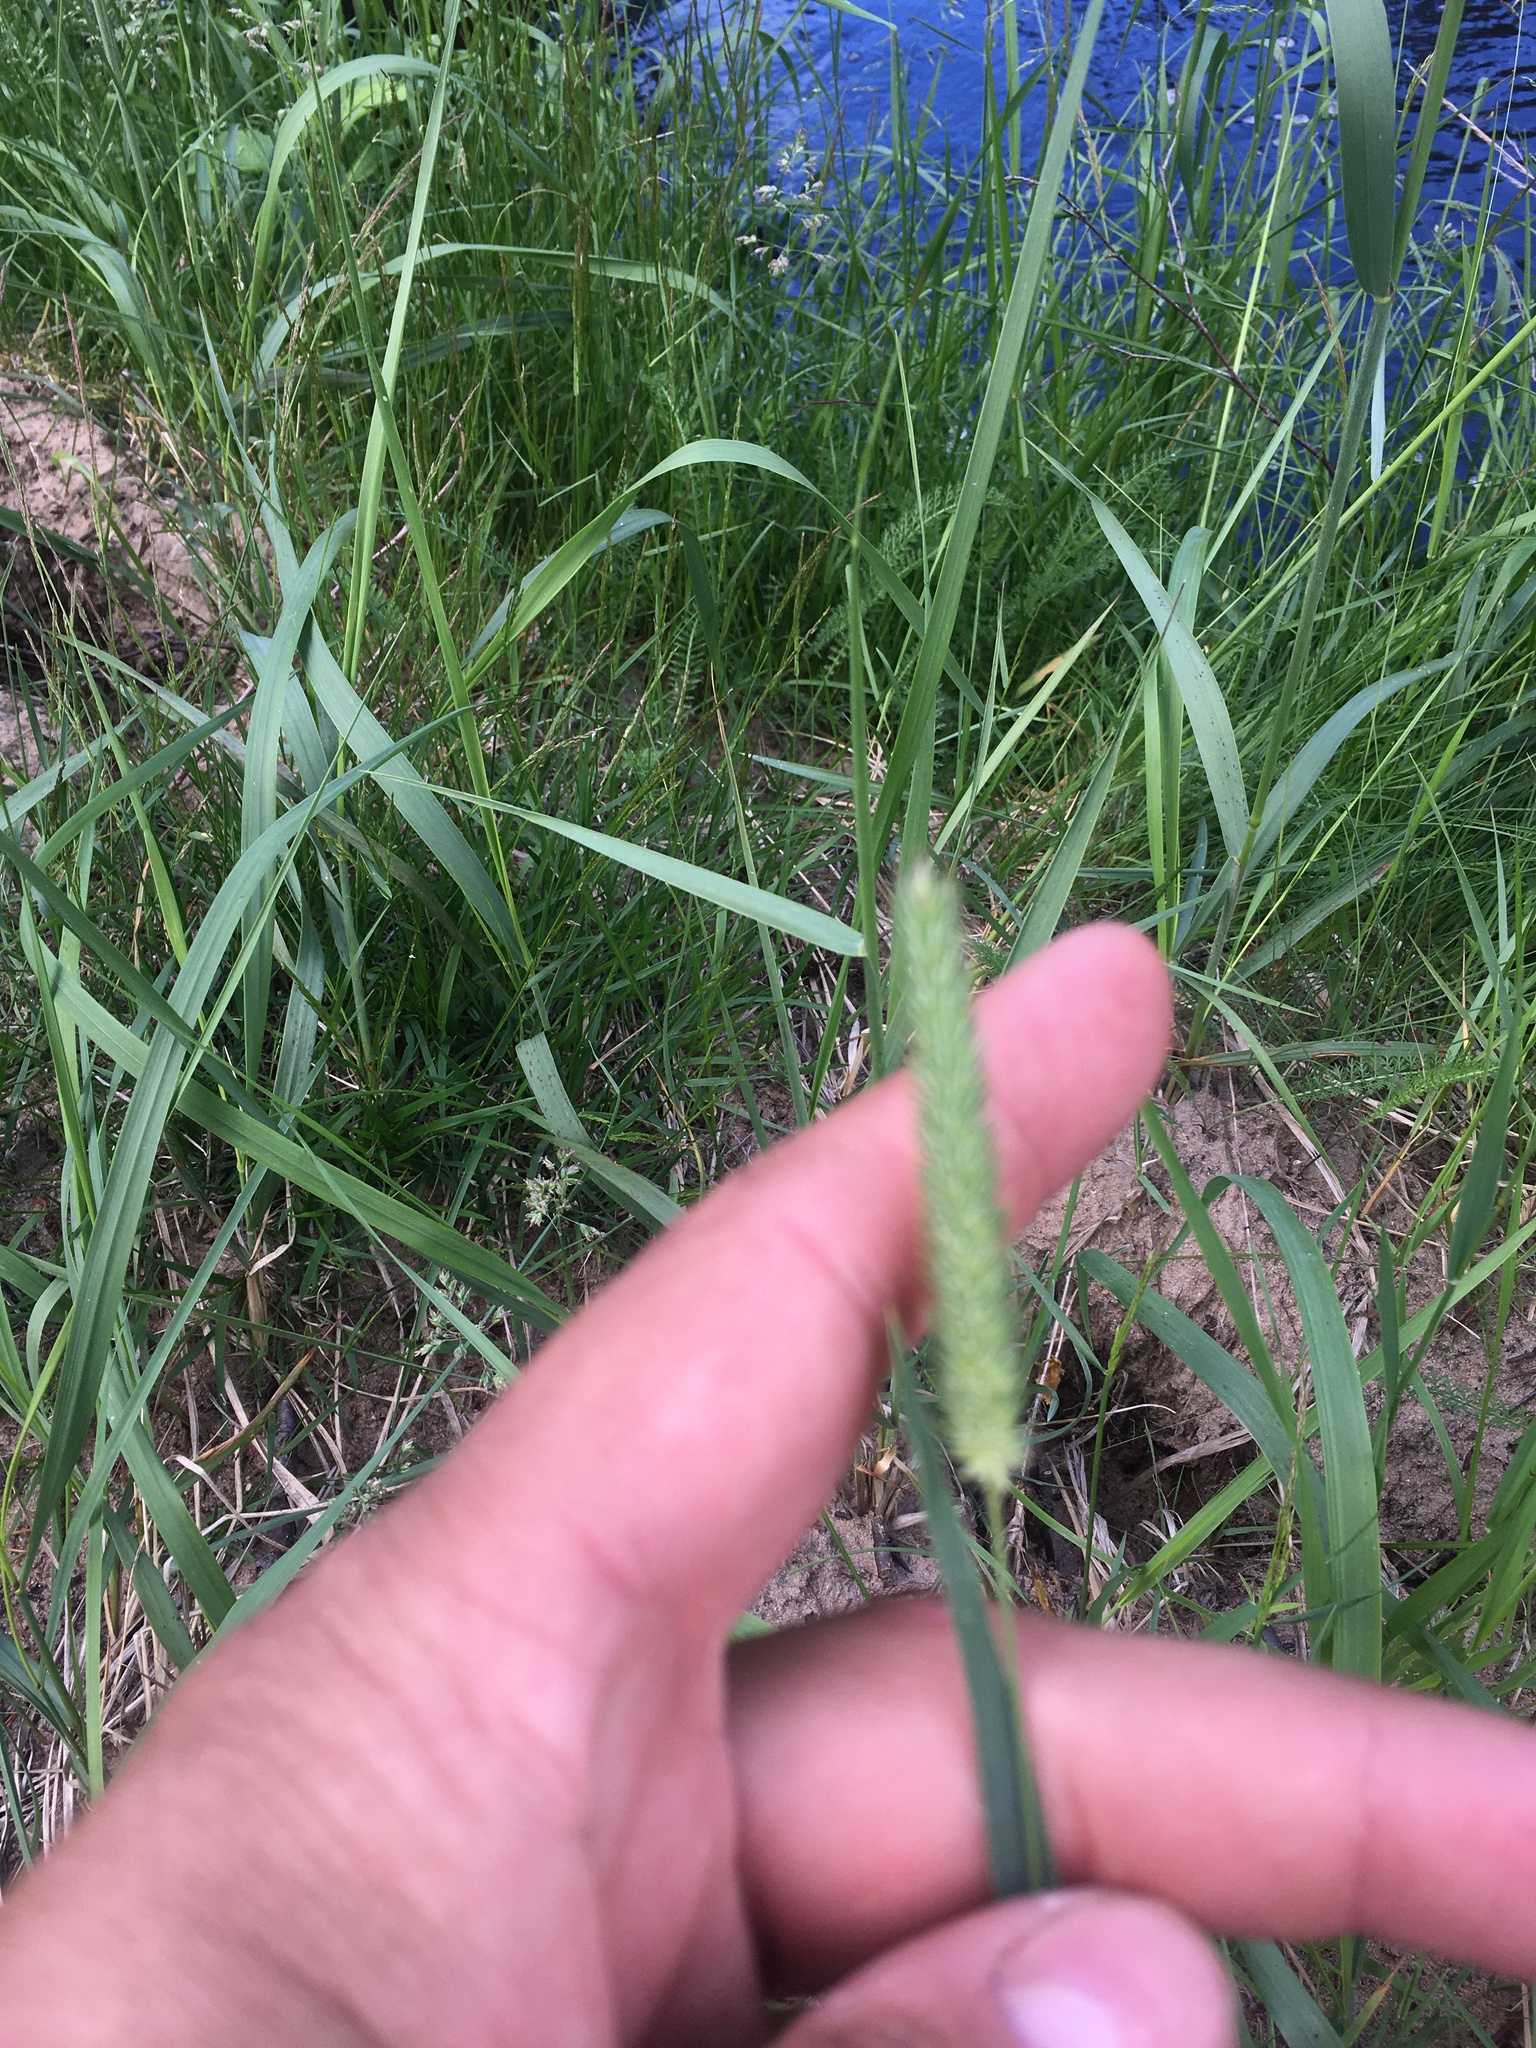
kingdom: Plantae
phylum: Tracheophyta
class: Liliopsida
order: Poales
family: Poaceae
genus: Phleum
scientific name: Phleum pratense
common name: Timothy grass
